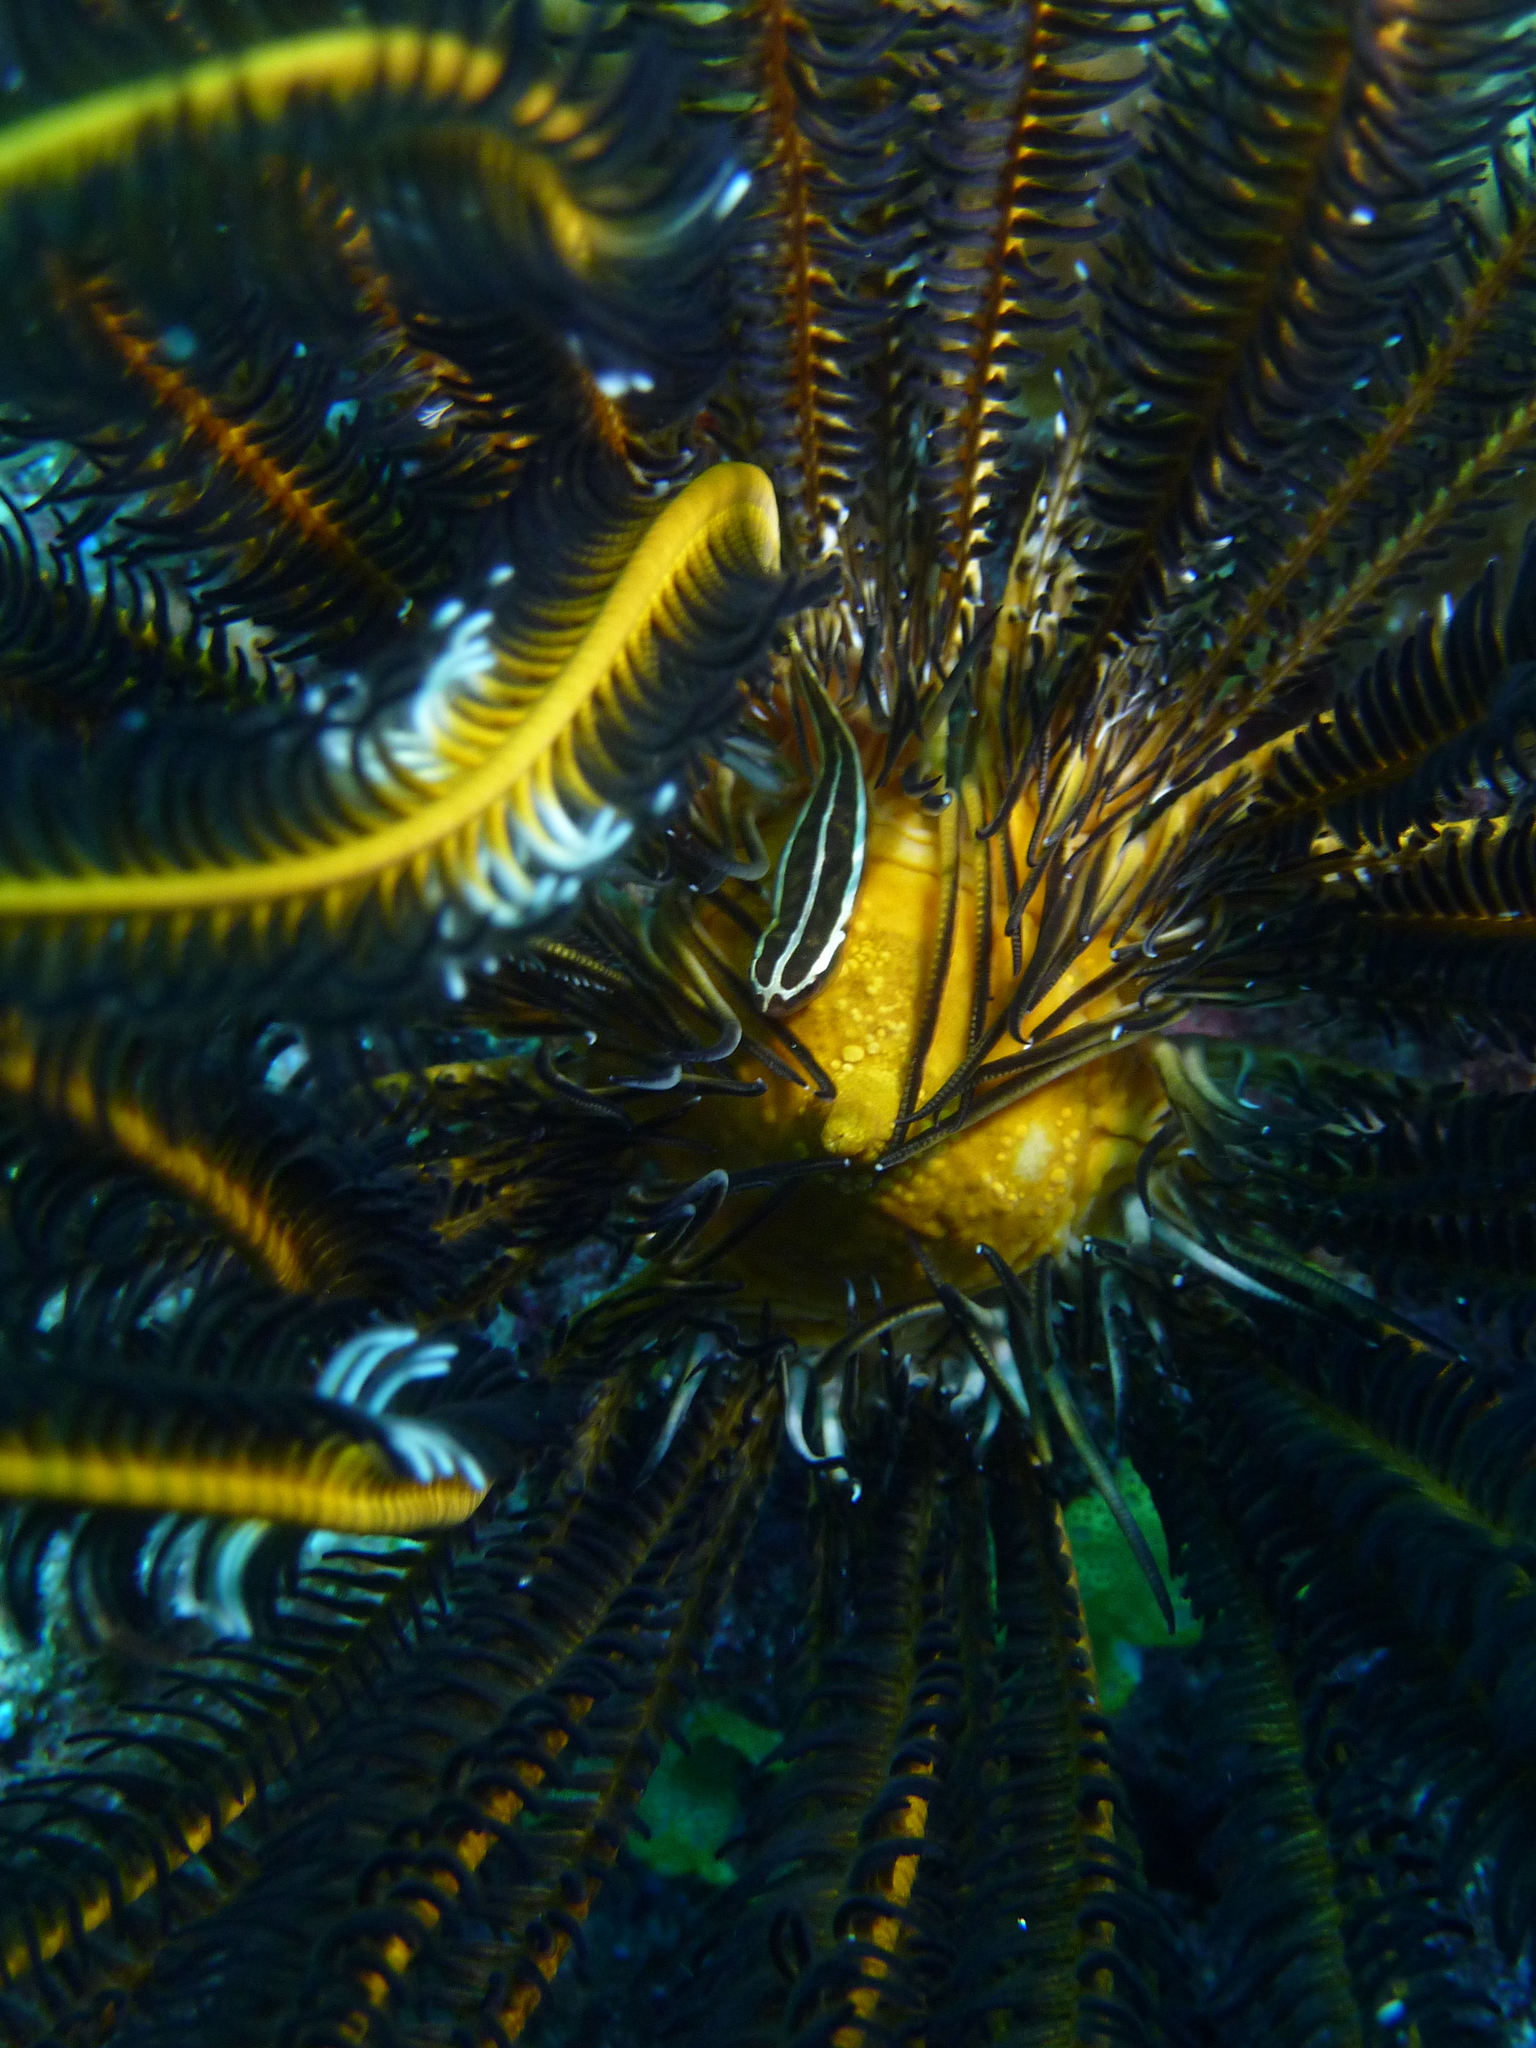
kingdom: Animalia
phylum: Chordata
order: Gobiesociformes
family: Gobiesocidae
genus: Discotrema
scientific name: Discotrema crinophilum
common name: Crinoid clingfish
